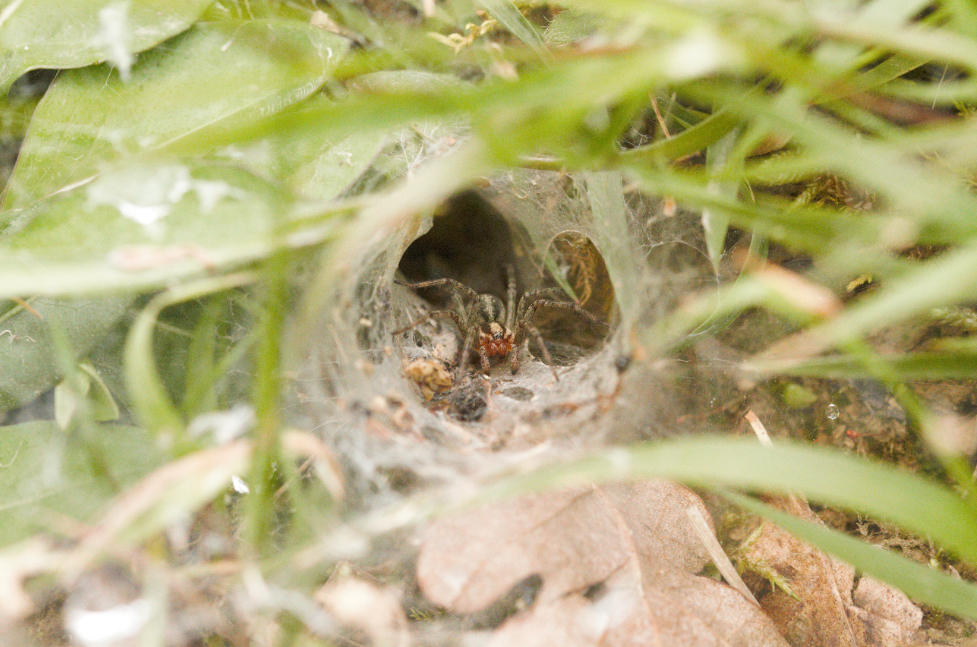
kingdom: Animalia
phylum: Arthropoda
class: Arachnida
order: Araneae
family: Agelenidae
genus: Agelena
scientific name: Agelena labyrinthica
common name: Labyrinth spider
